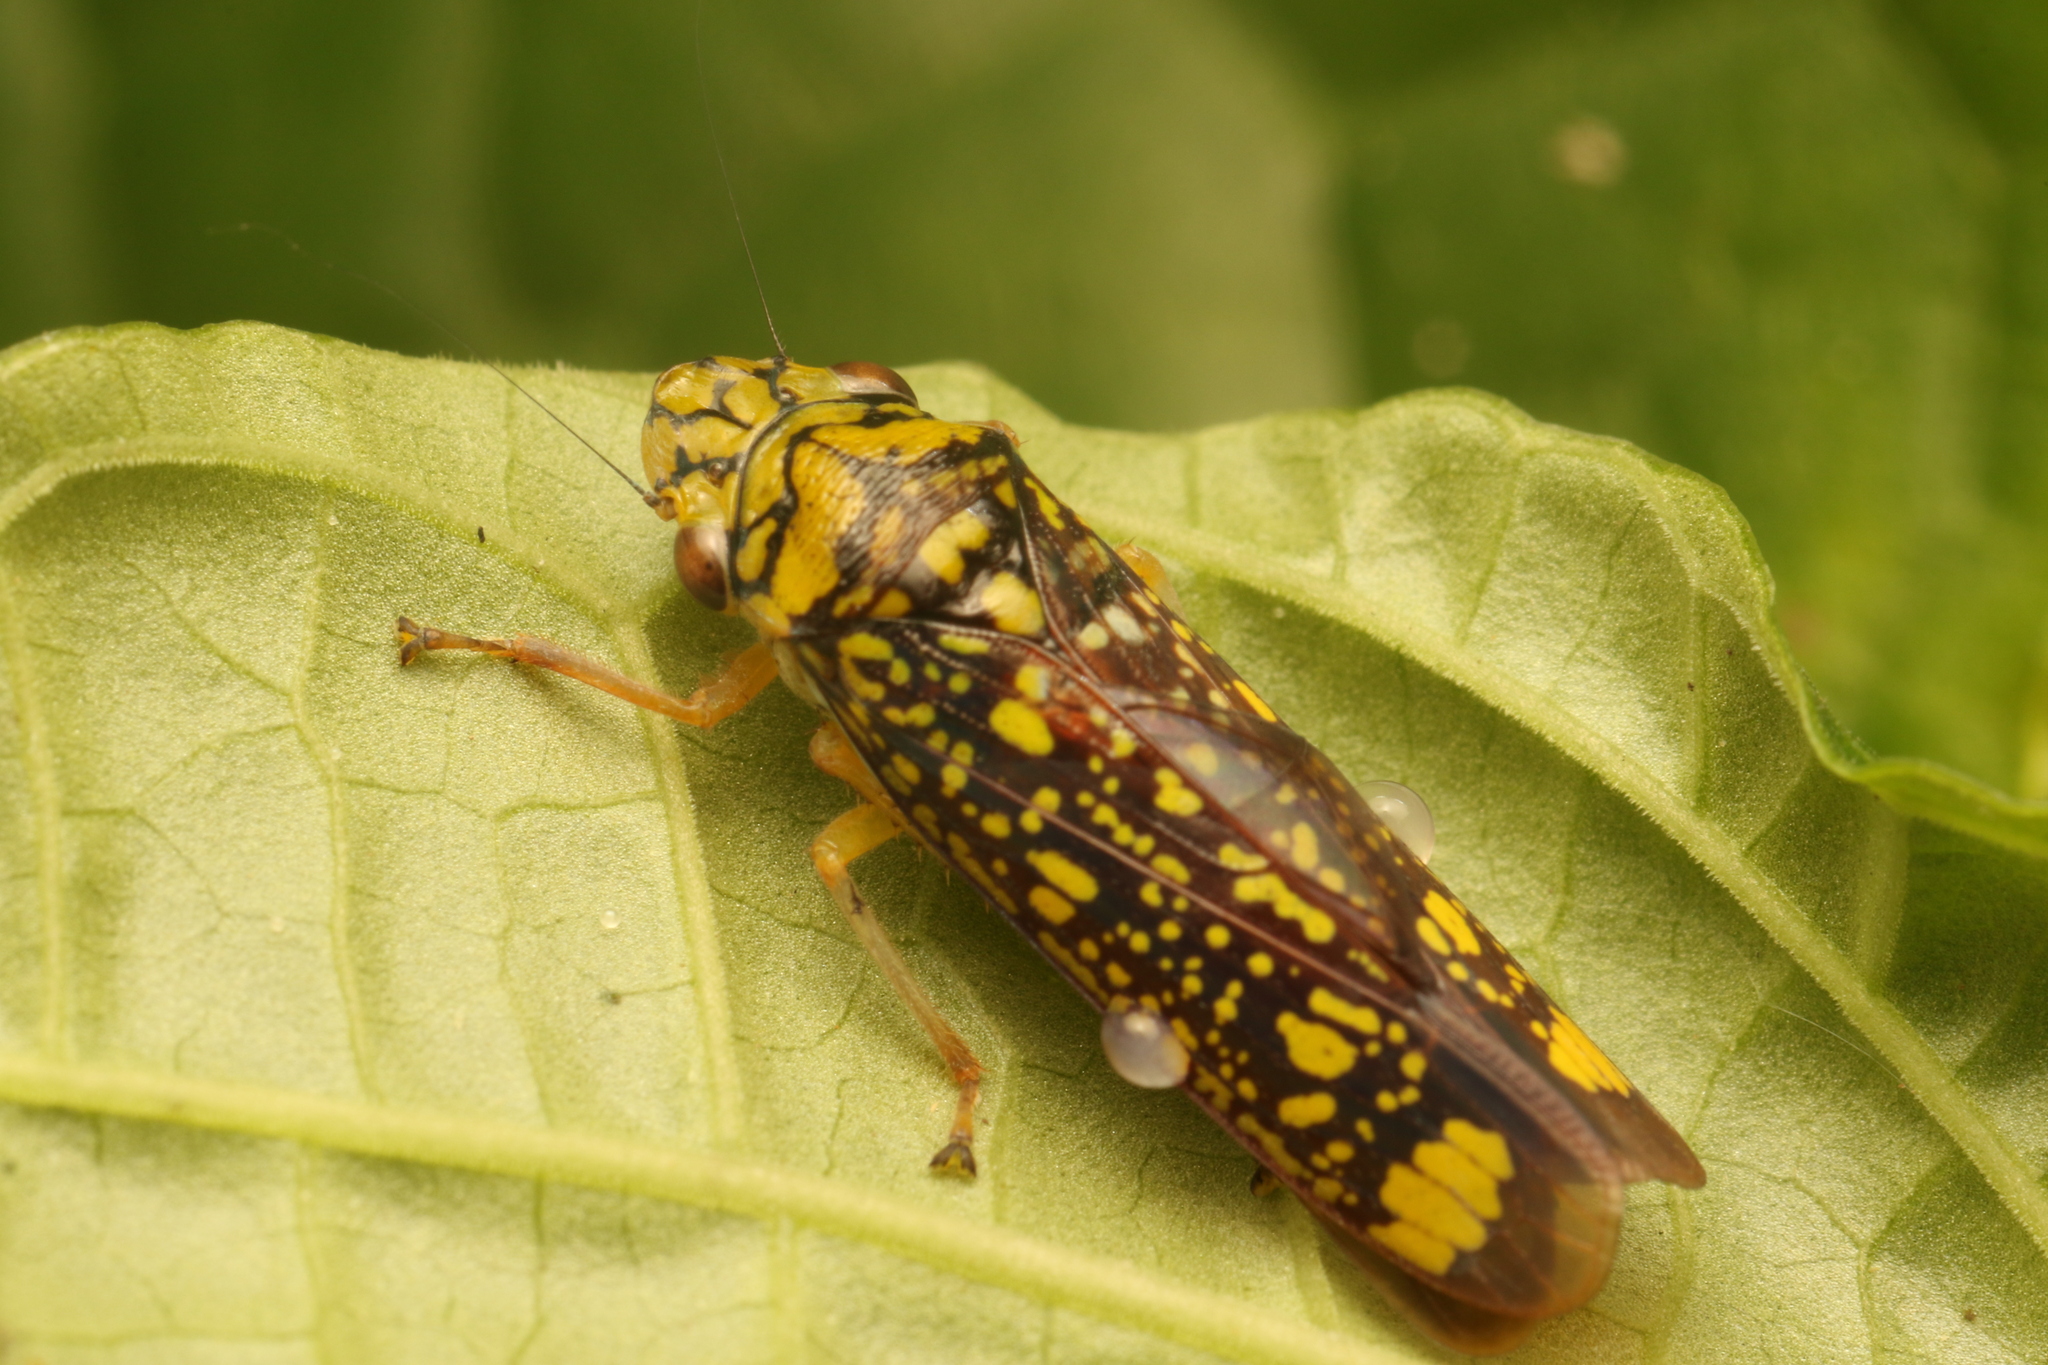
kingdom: Animalia
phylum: Arthropoda
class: Insecta
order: Hemiptera
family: Cicadellidae
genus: Aulacizes
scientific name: Aulacizes conspersa
